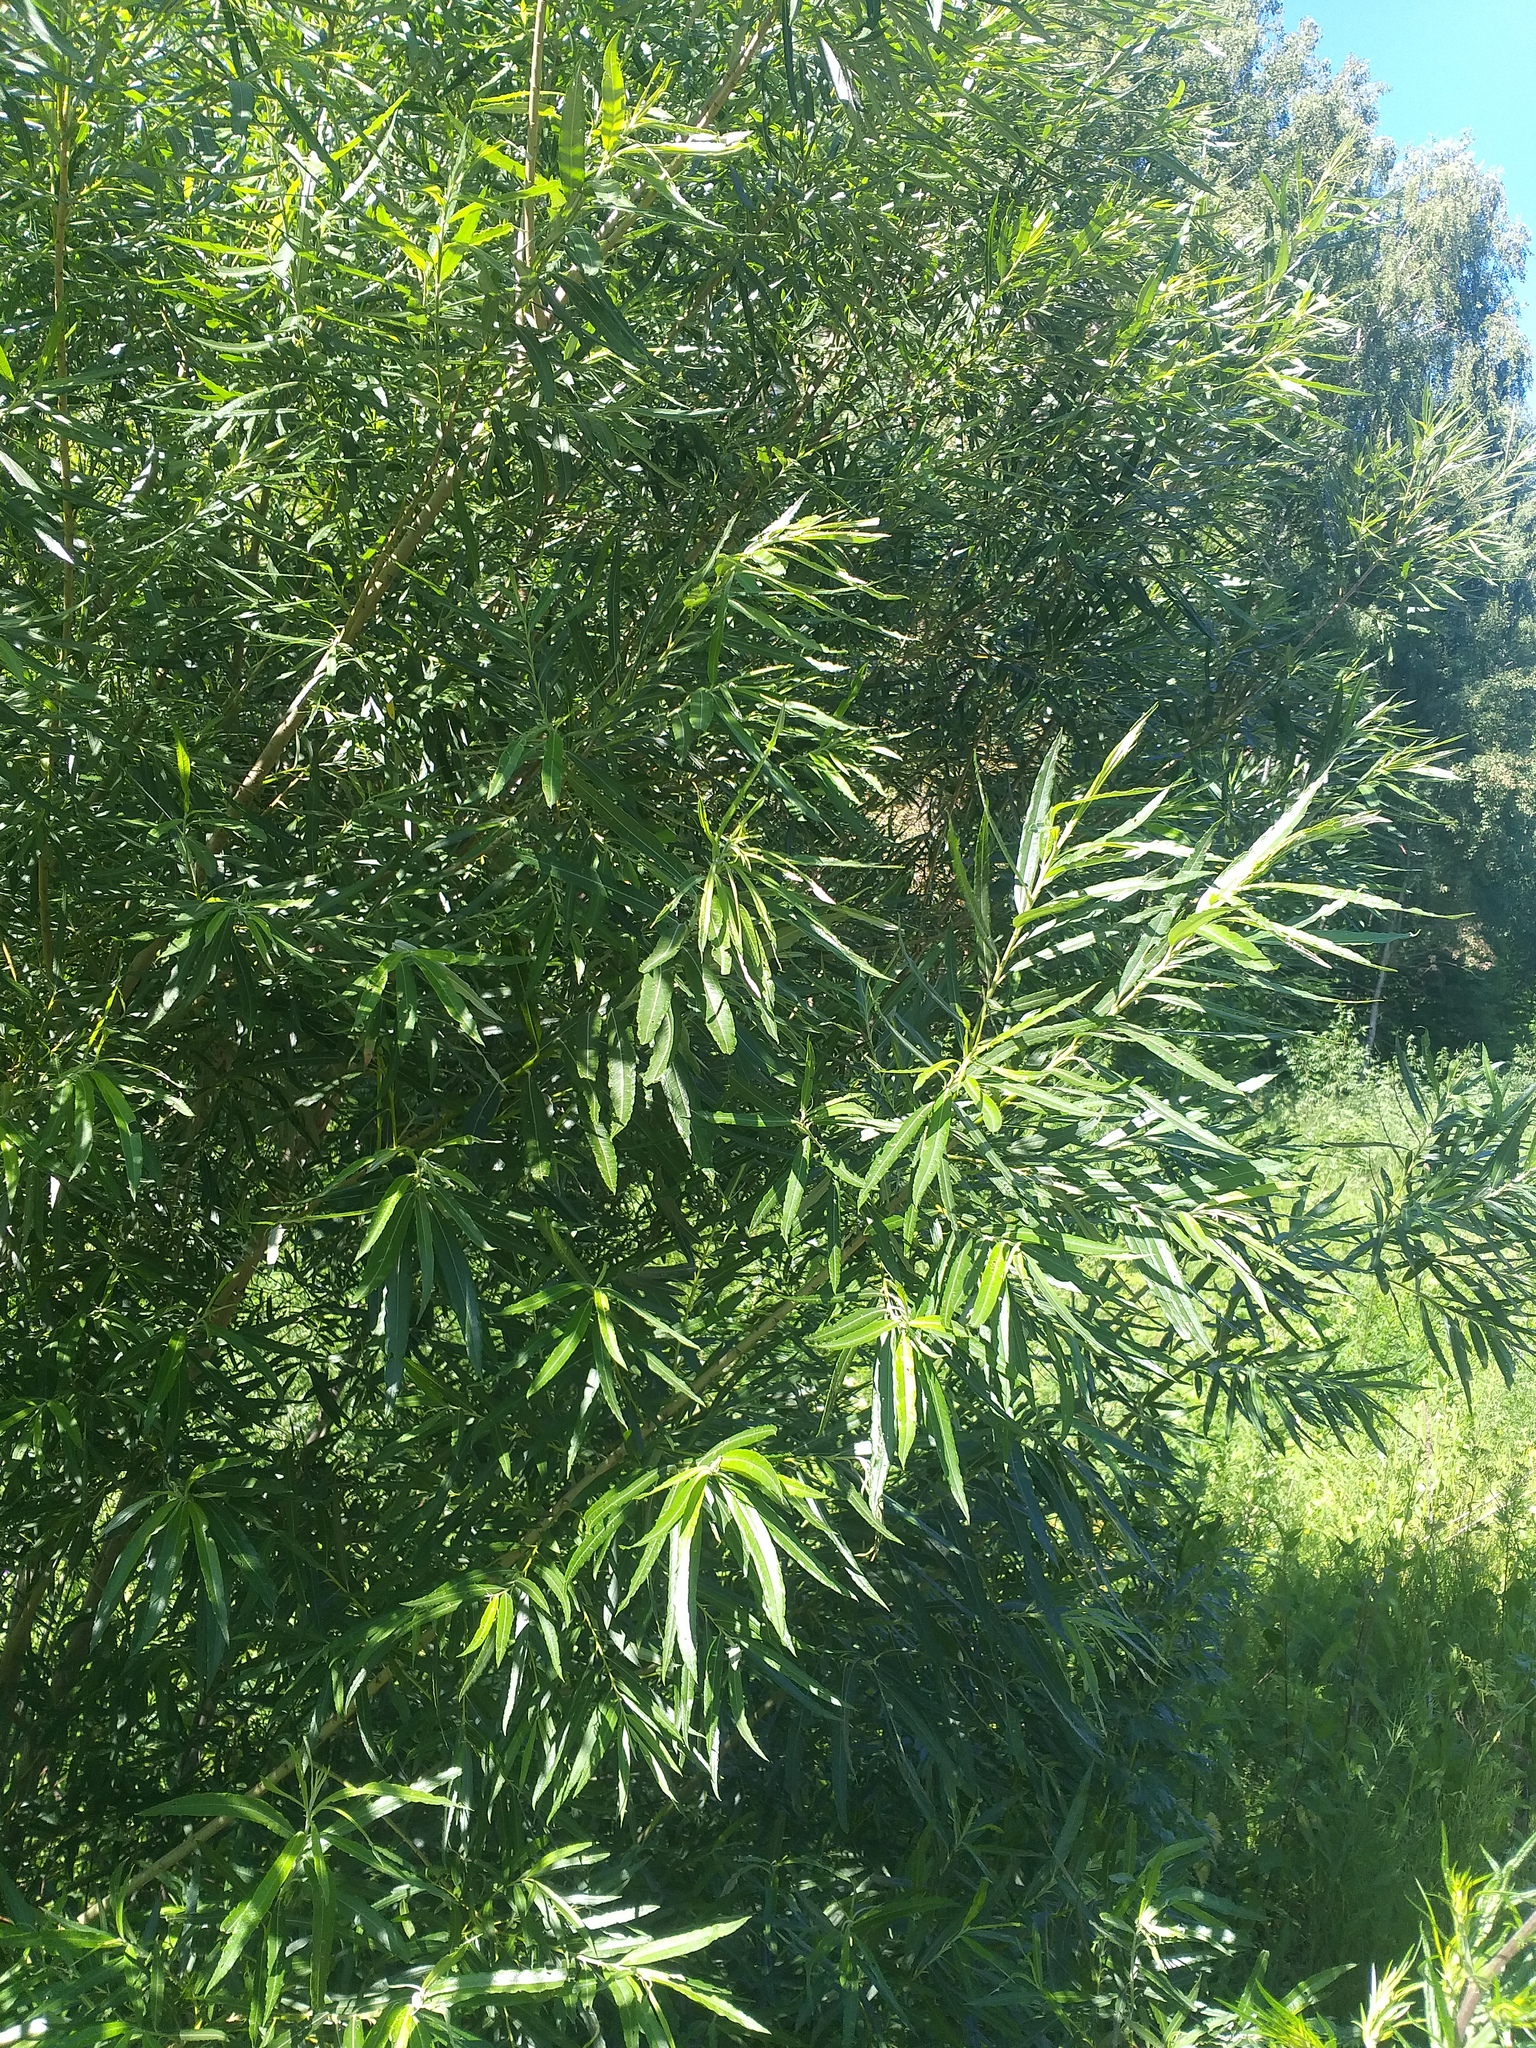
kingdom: Plantae
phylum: Tracheophyta
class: Magnoliopsida
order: Malpighiales
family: Salicaceae
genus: Salix
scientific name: Salix gmelinii
